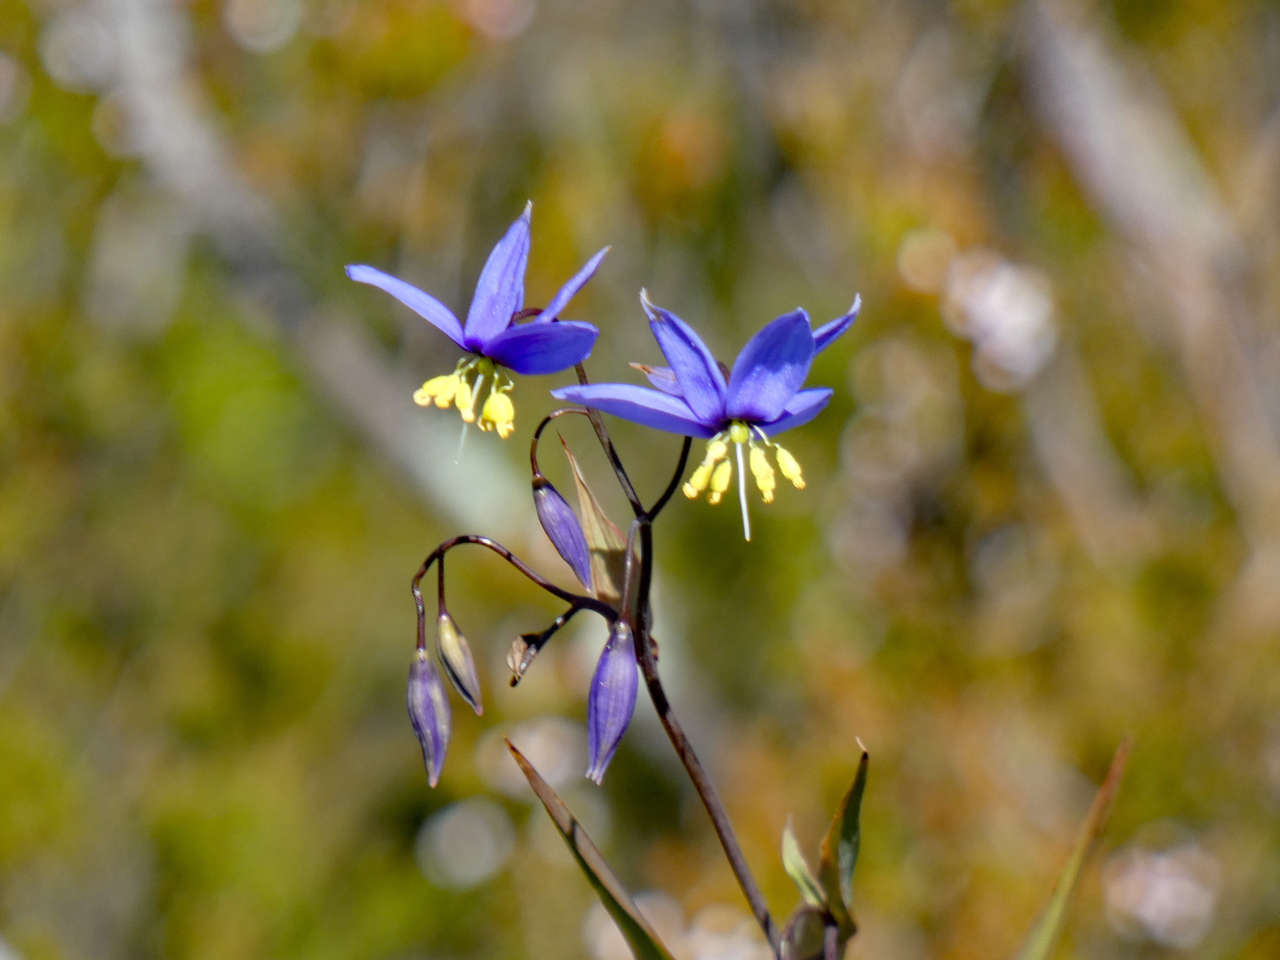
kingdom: Plantae
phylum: Tracheophyta
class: Liliopsida
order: Asparagales
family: Asphodelaceae
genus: Stypandra
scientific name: Stypandra glauca
